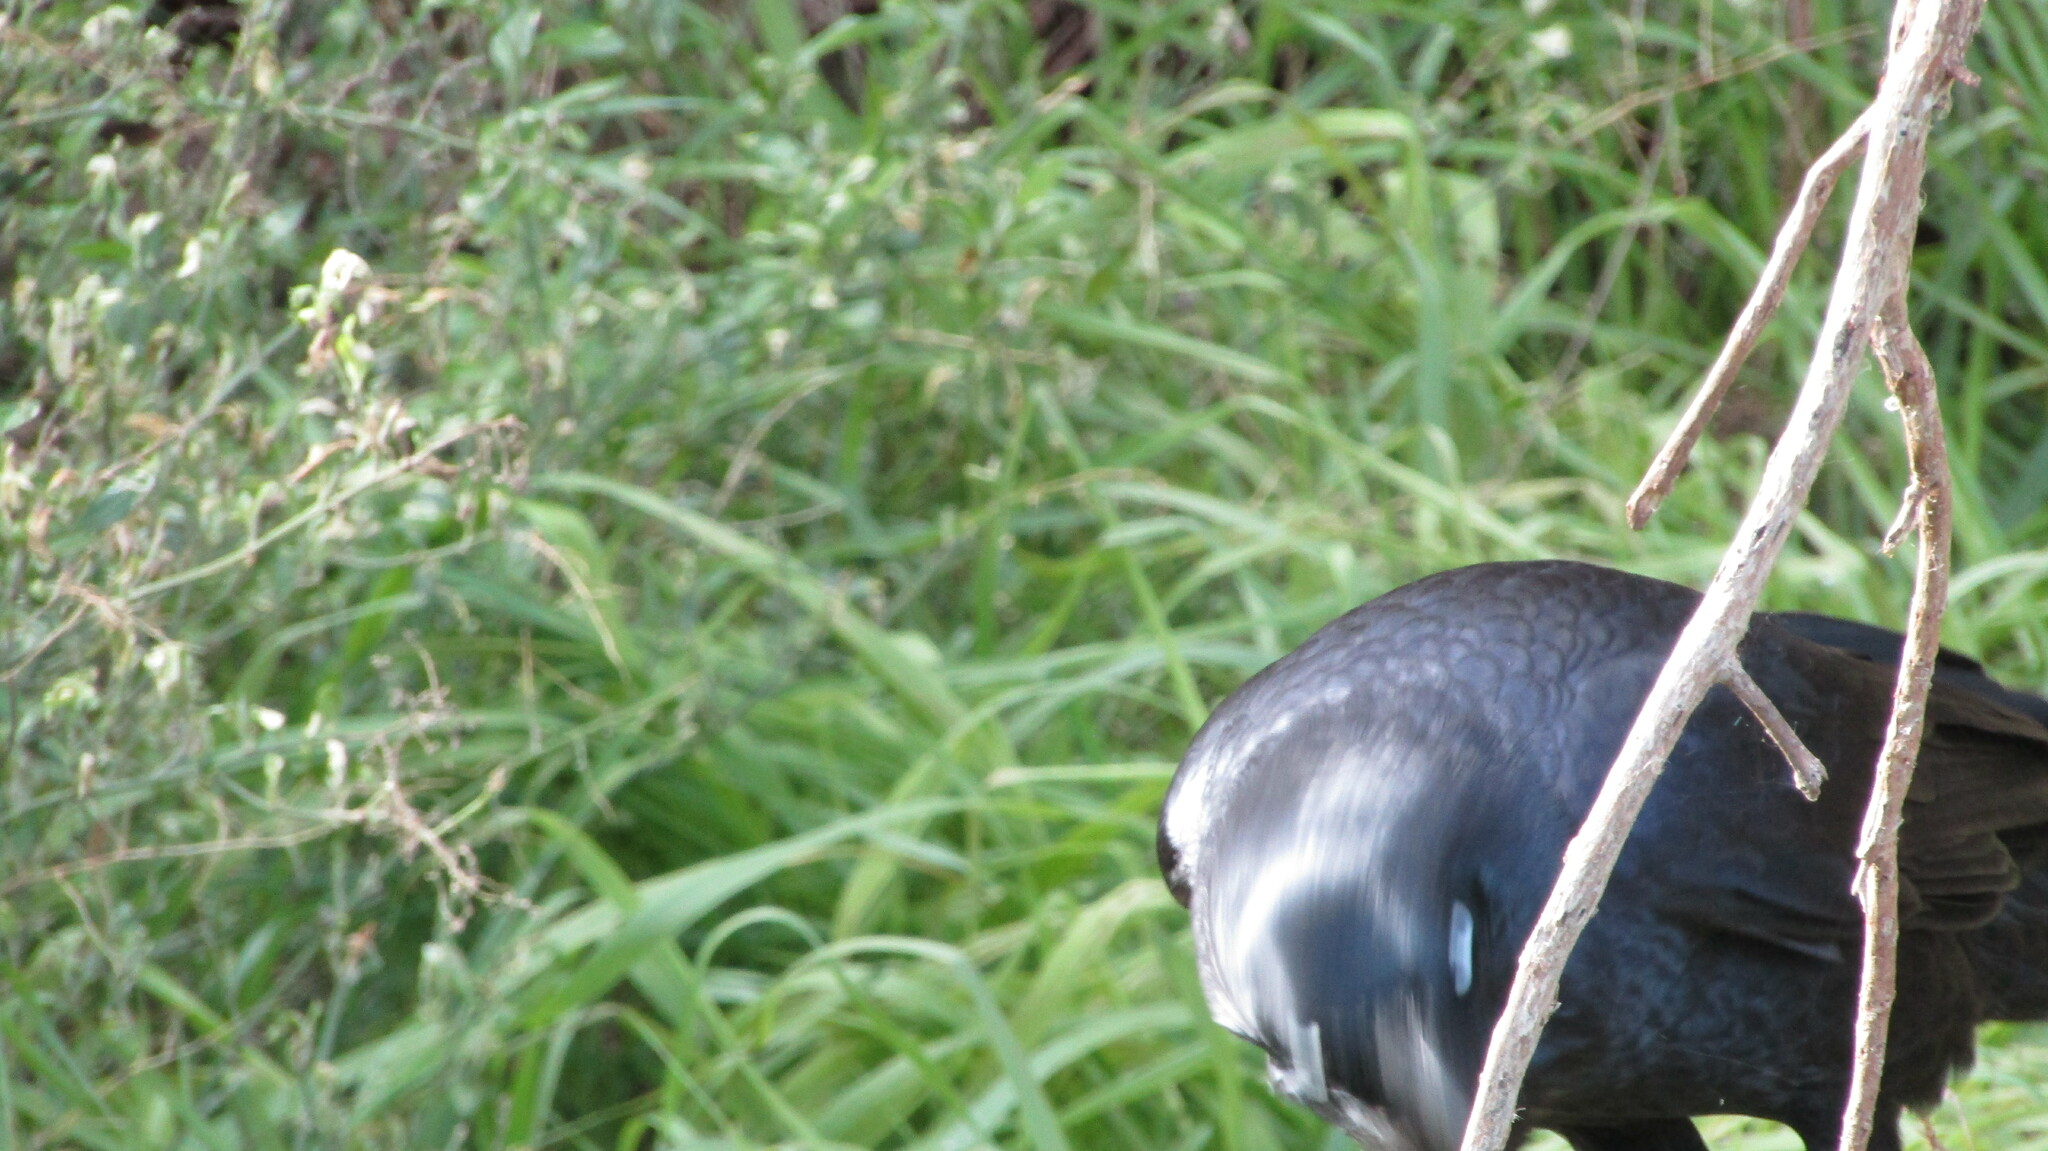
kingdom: Animalia
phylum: Chordata
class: Aves
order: Passeriformes
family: Corvidae
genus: Corvus
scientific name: Corvus coronoides
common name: Australian raven
